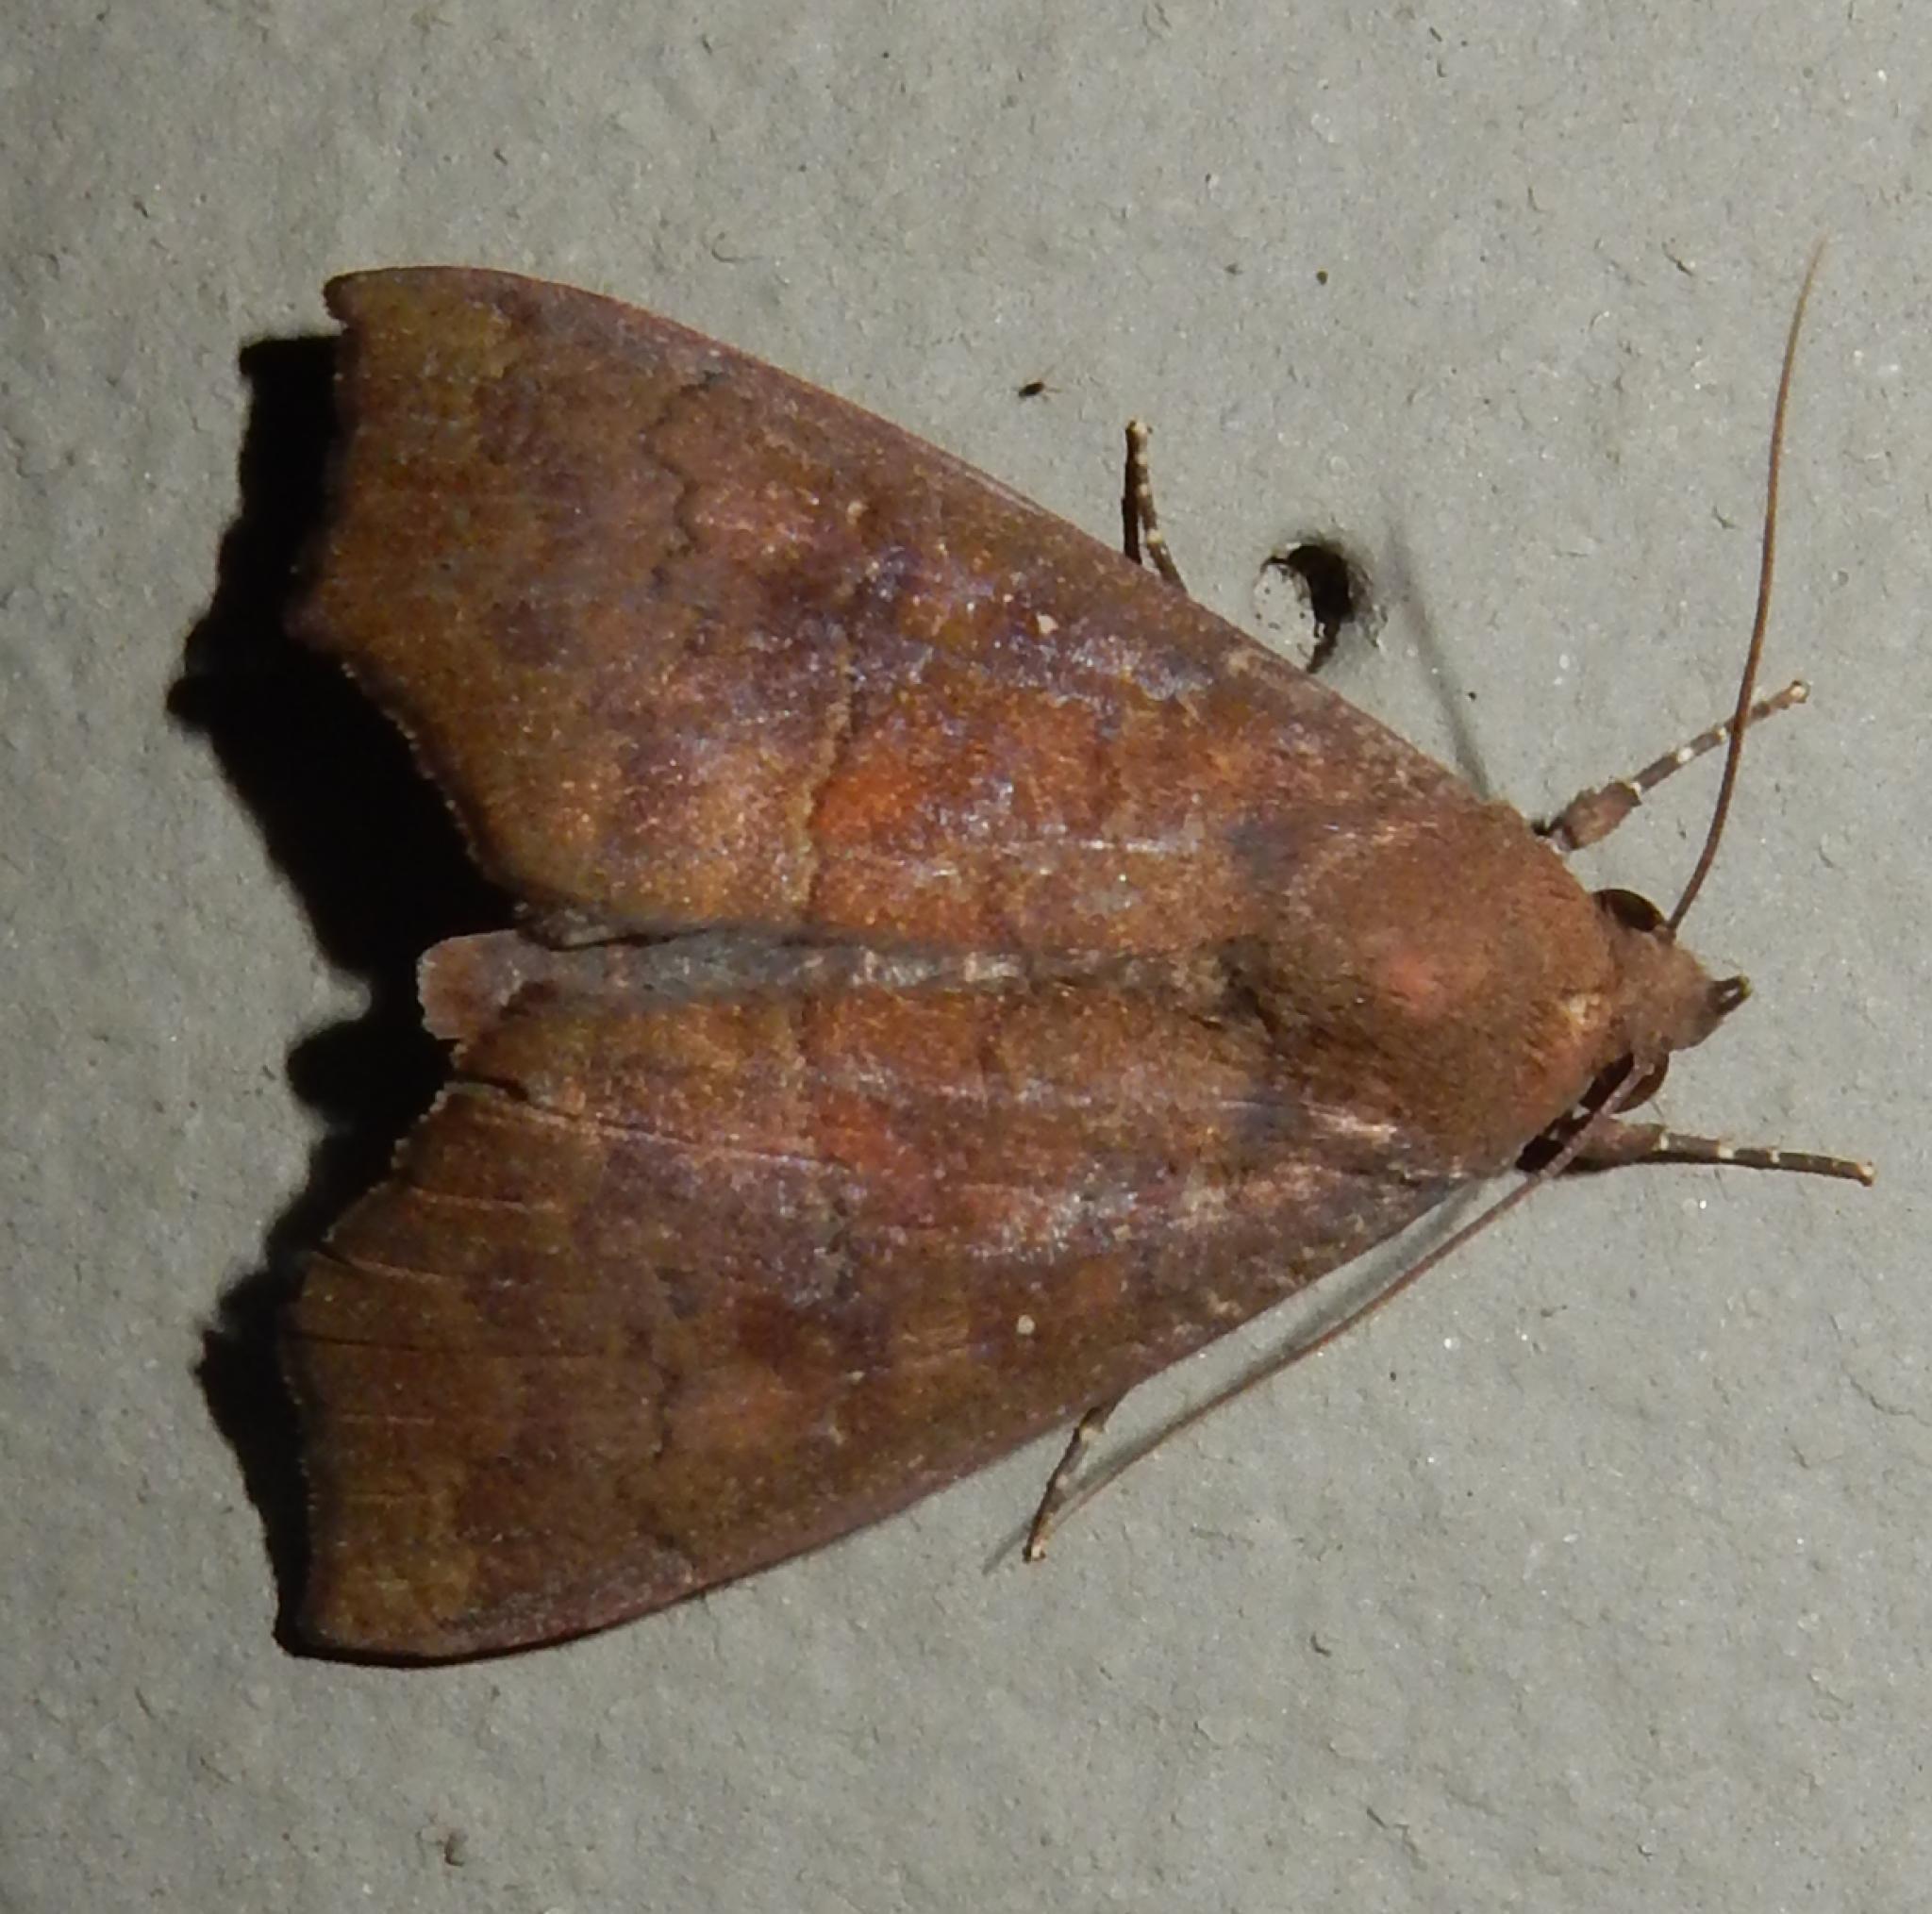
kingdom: Animalia
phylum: Arthropoda
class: Insecta
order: Lepidoptera
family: Erebidae
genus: Anomis
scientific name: Anomis leona
